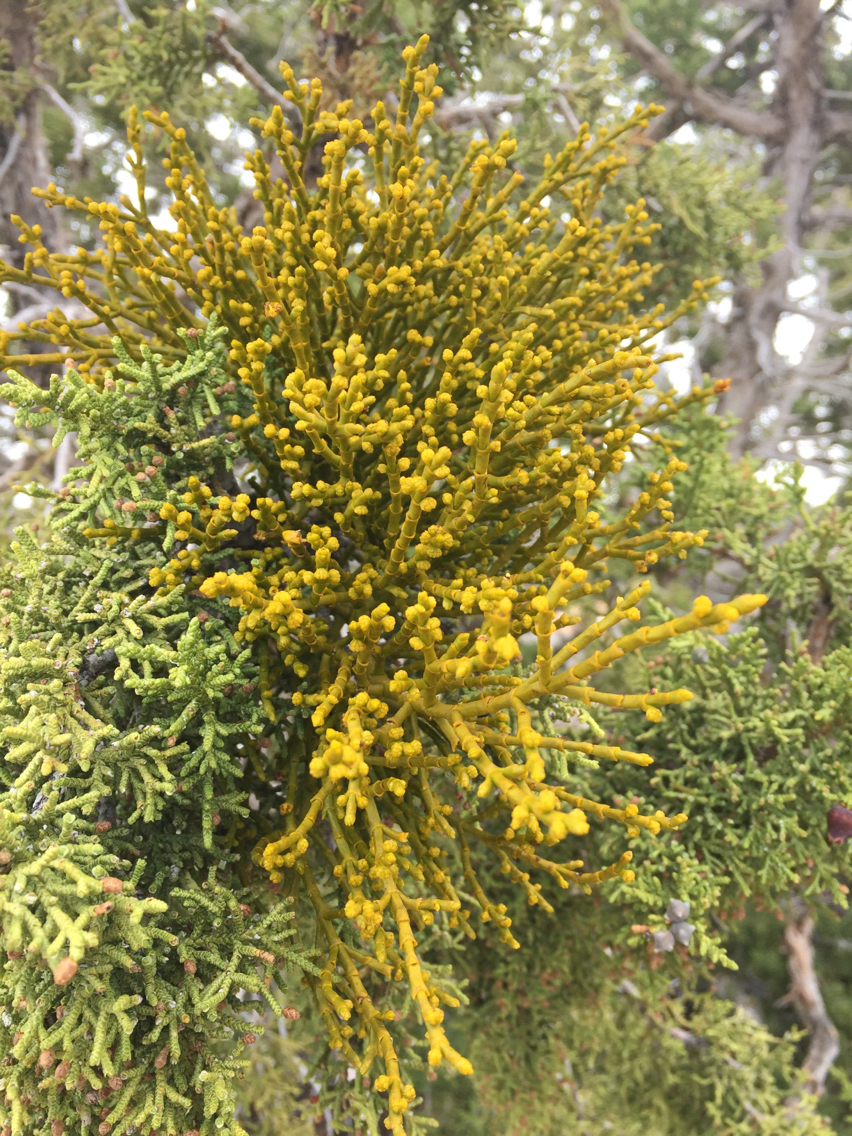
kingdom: Plantae
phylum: Tracheophyta
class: Magnoliopsida
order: Santalales
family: Viscaceae
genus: Phoradendron
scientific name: Phoradendron juniperinum
